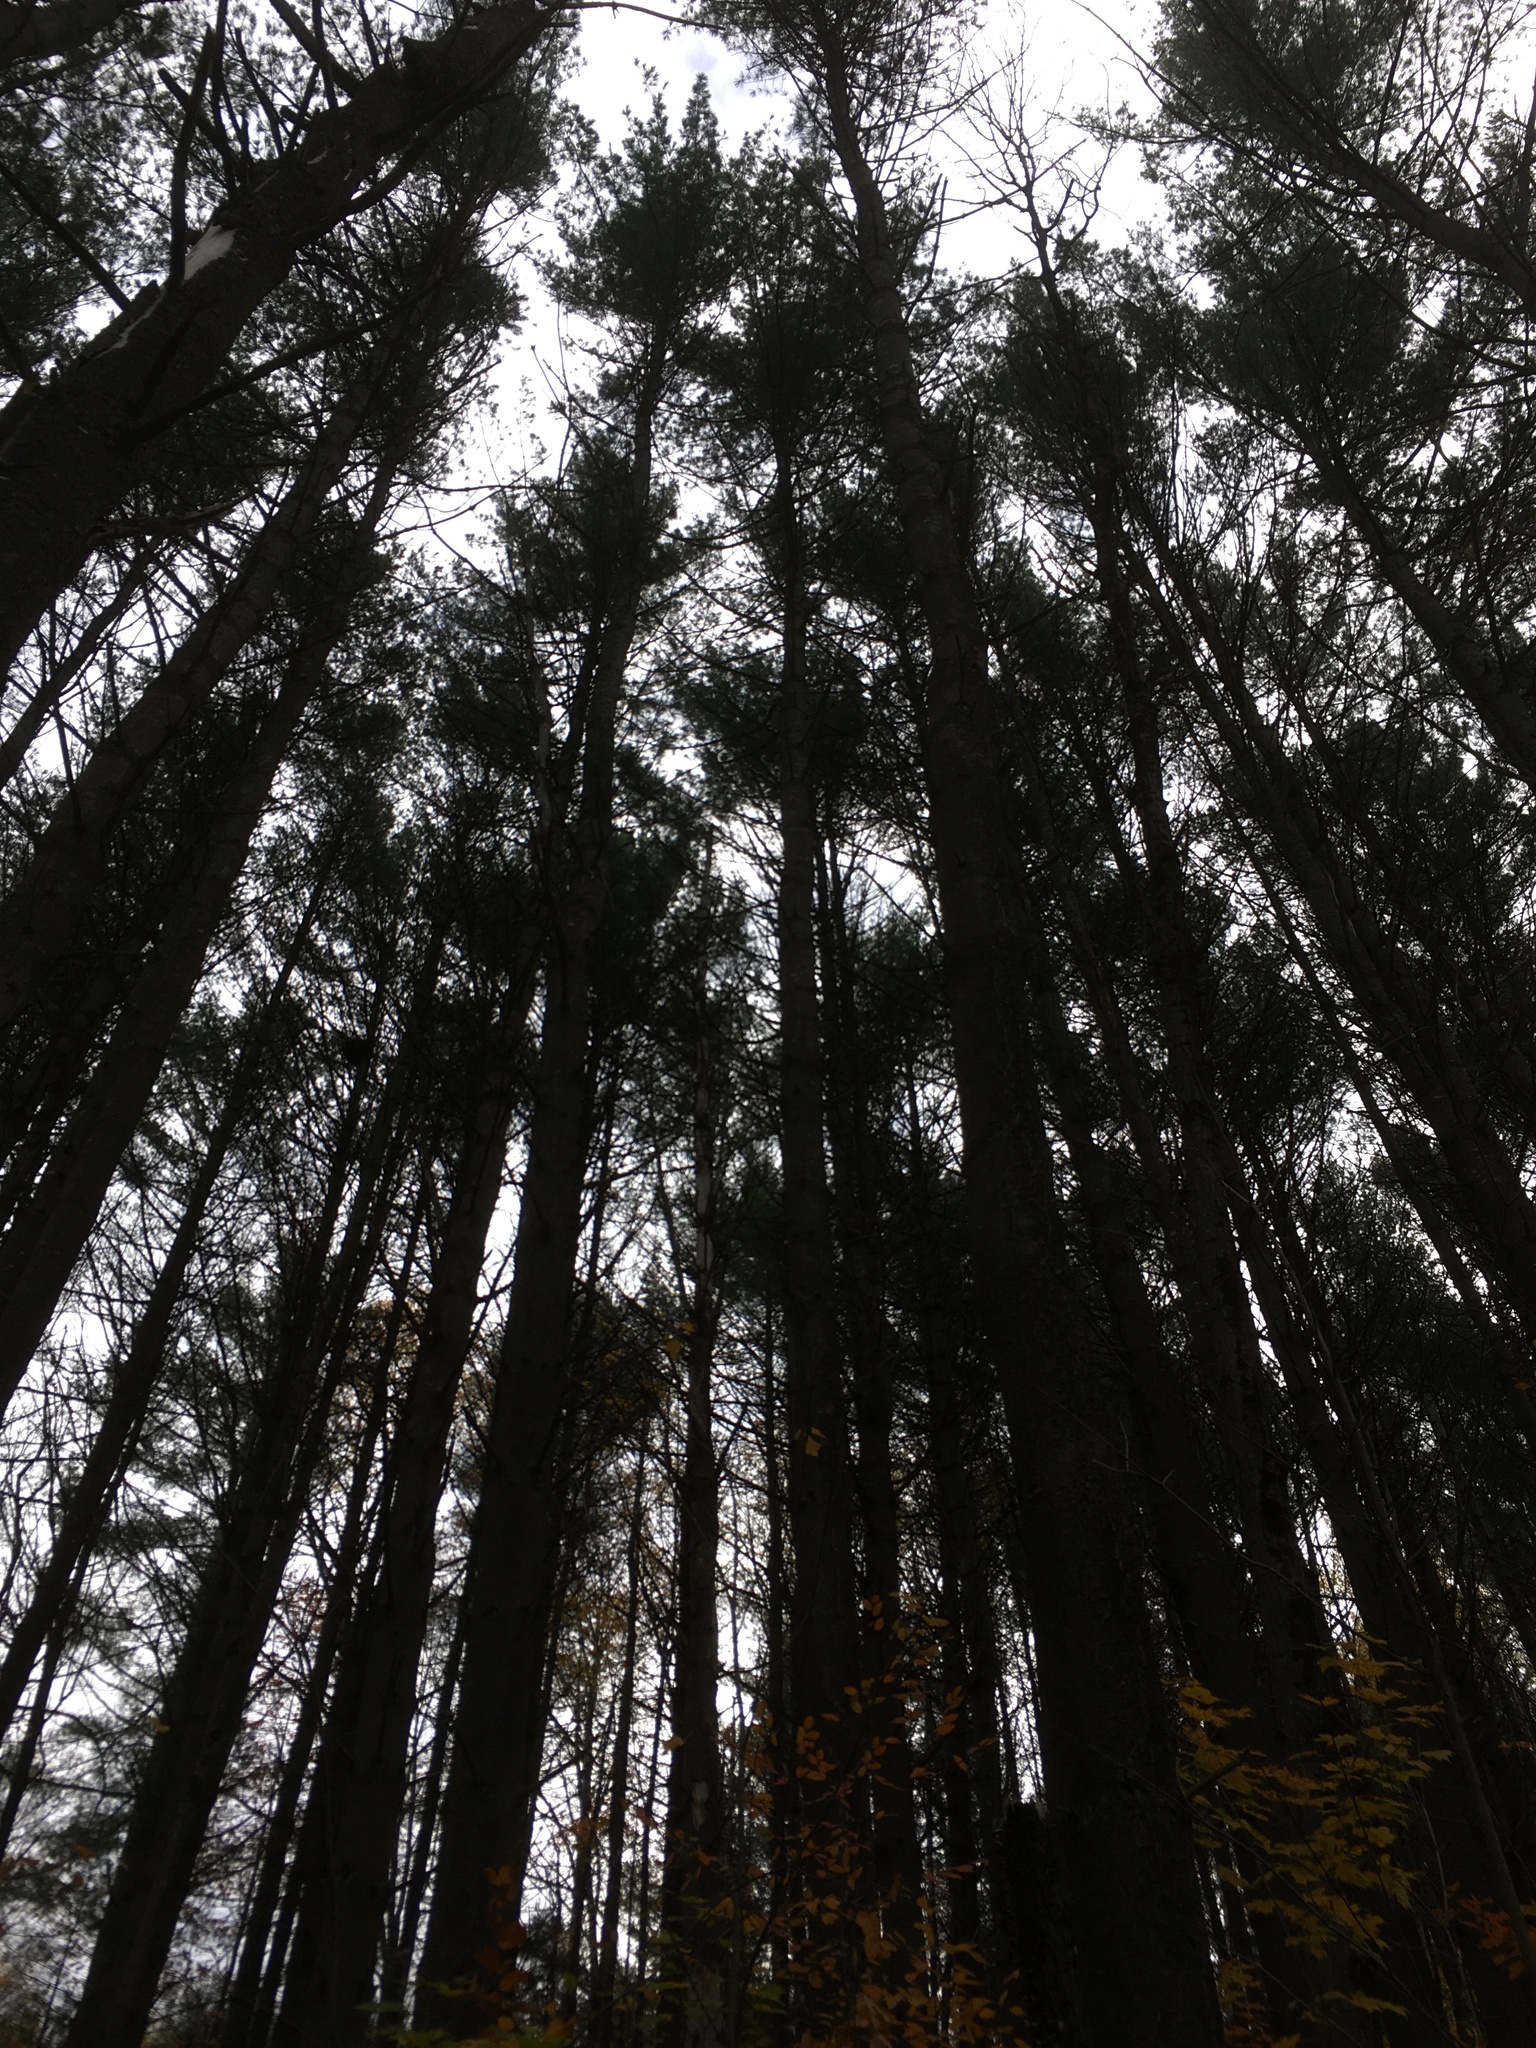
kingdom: Plantae
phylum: Tracheophyta
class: Pinopsida
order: Pinales
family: Pinaceae
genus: Pinus
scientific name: Pinus strobus
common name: Weymouth pine
